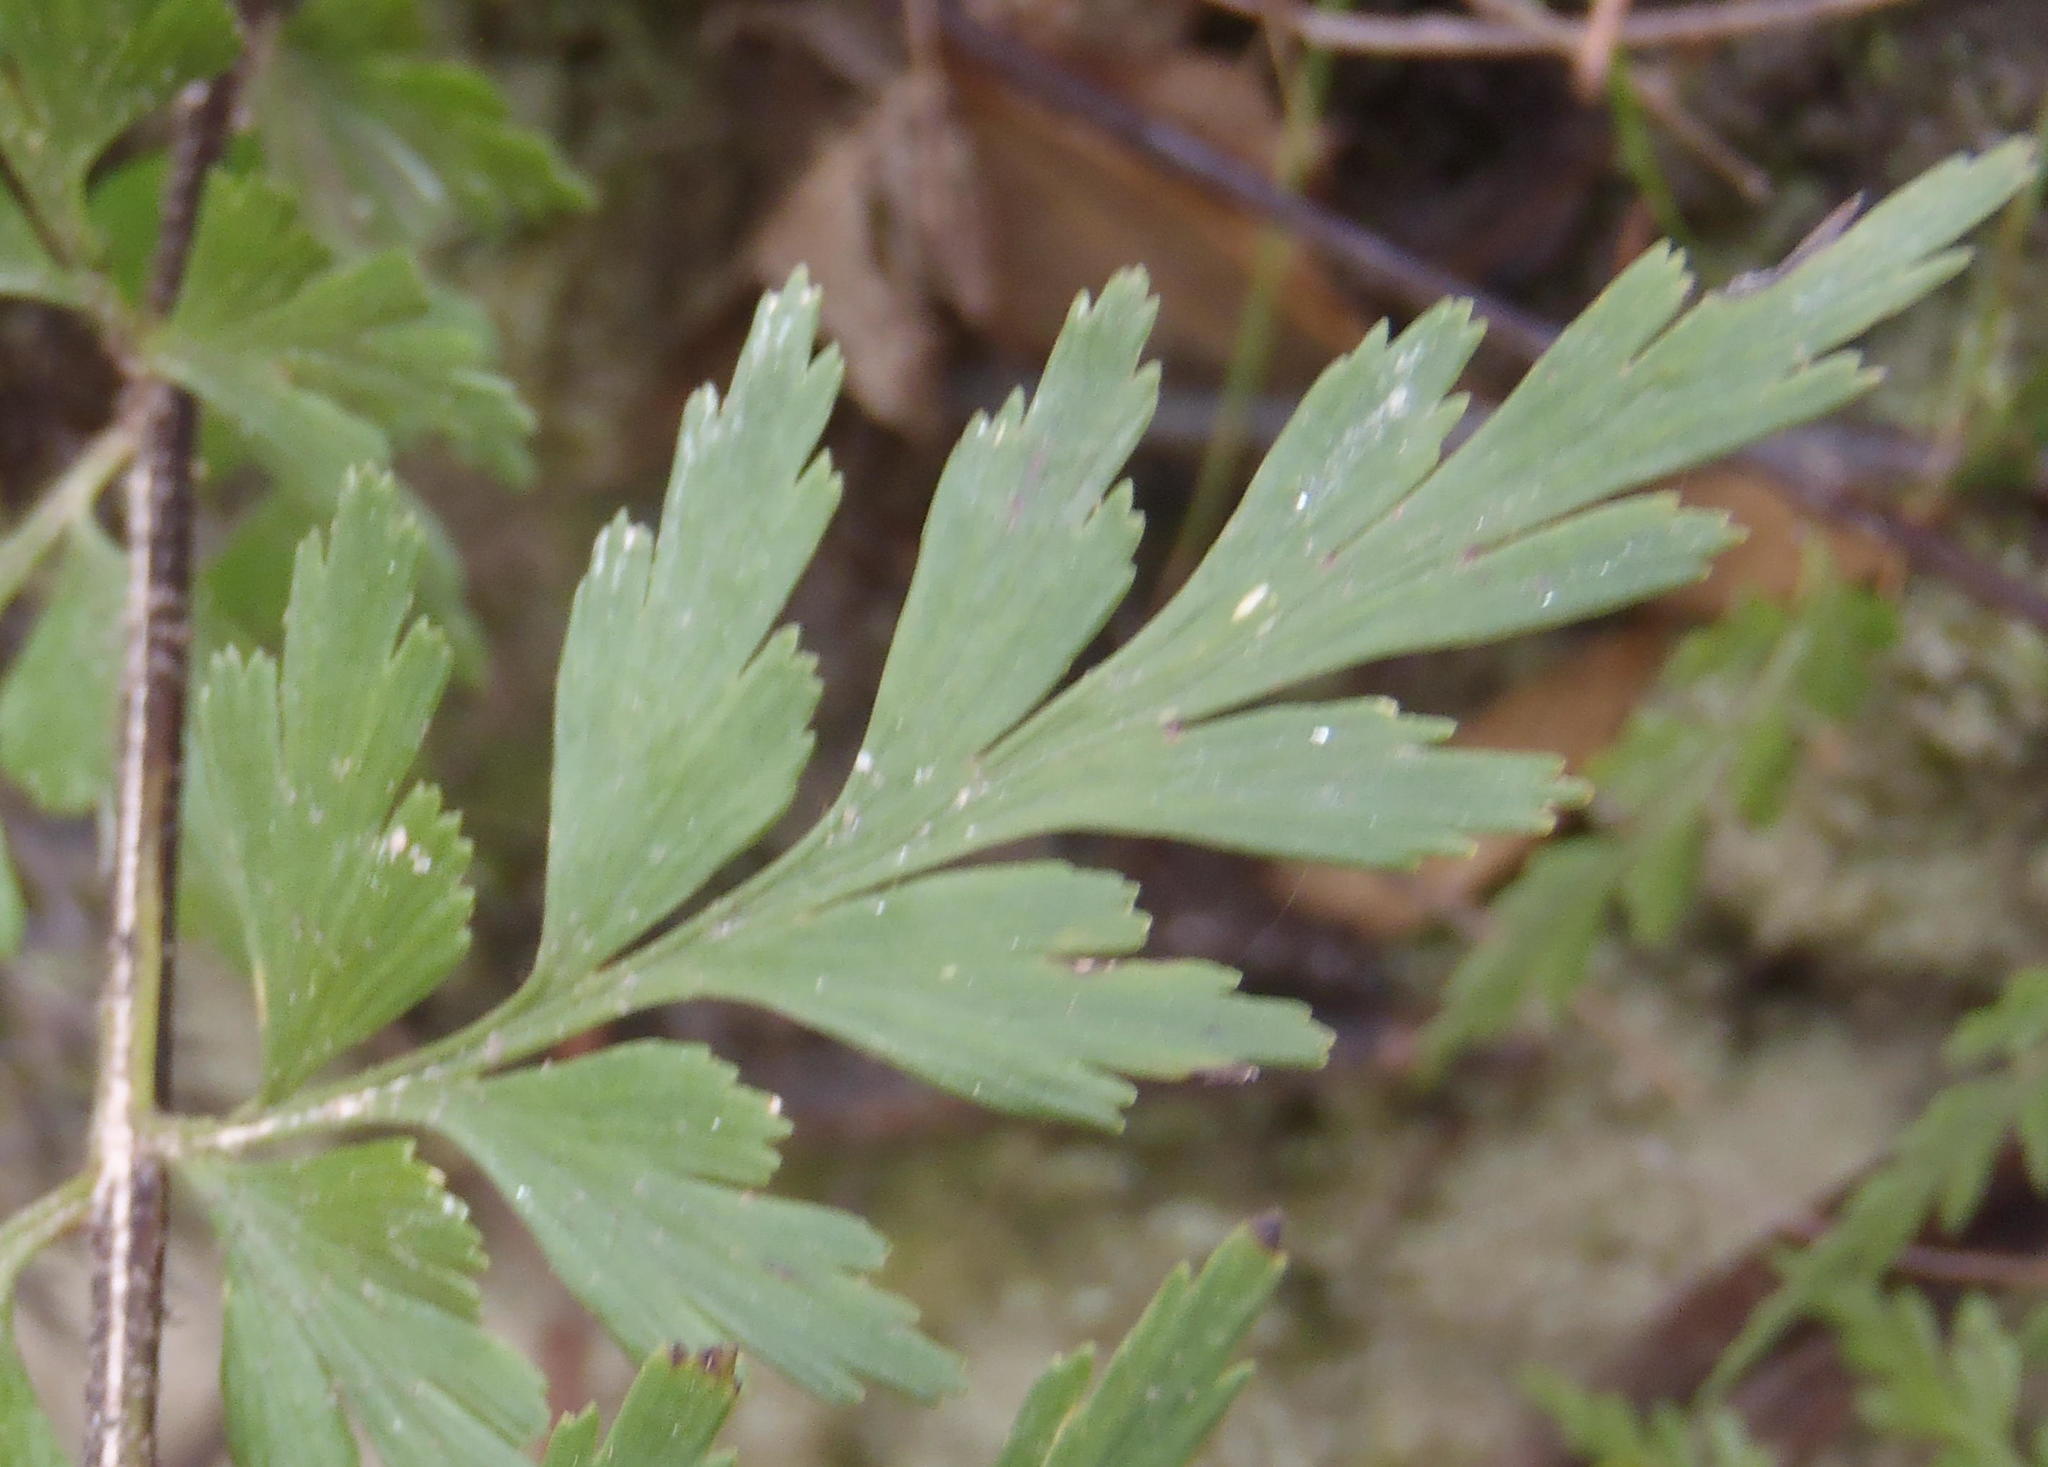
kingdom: Plantae
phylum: Tracheophyta
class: Polypodiopsida
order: Polypodiales
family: Aspleniaceae
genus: Asplenium
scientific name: Asplenium aethiopicum
